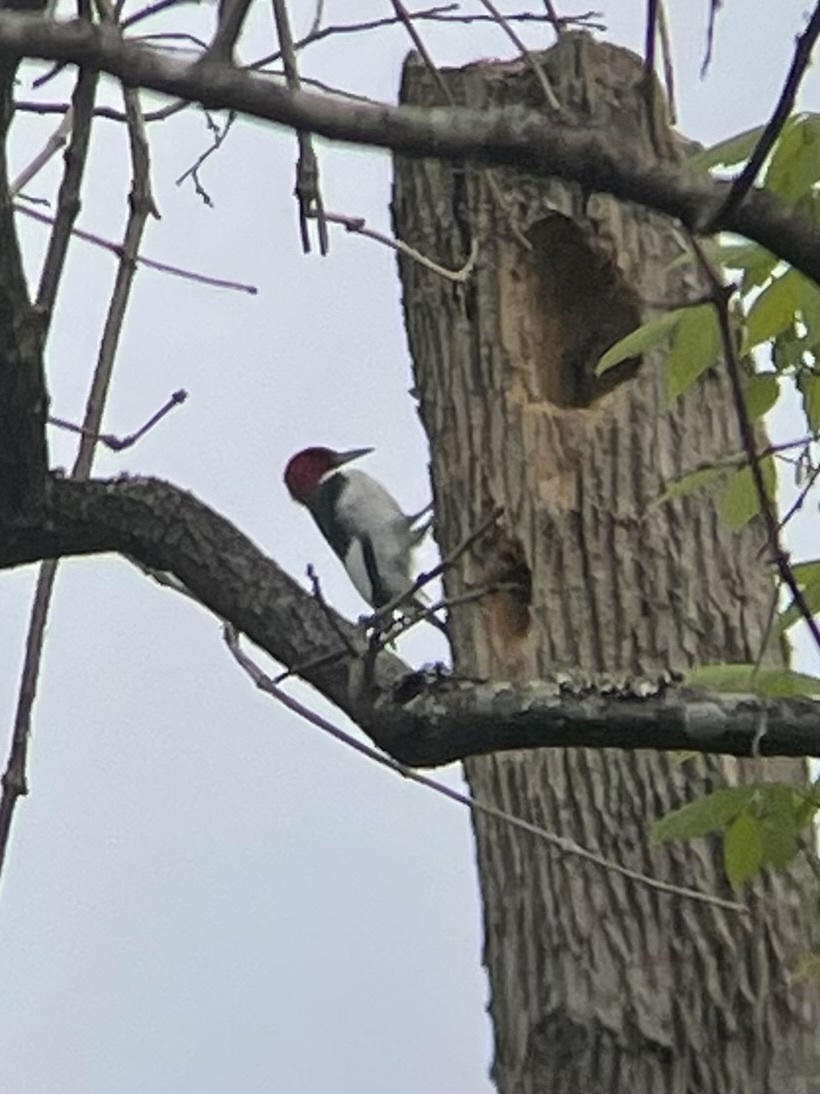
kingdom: Animalia
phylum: Chordata
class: Aves
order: Piciformes
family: Picidae
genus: Melanerpes
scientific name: Melanerpes erythrocephalus
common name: Red-headed woodpecker
